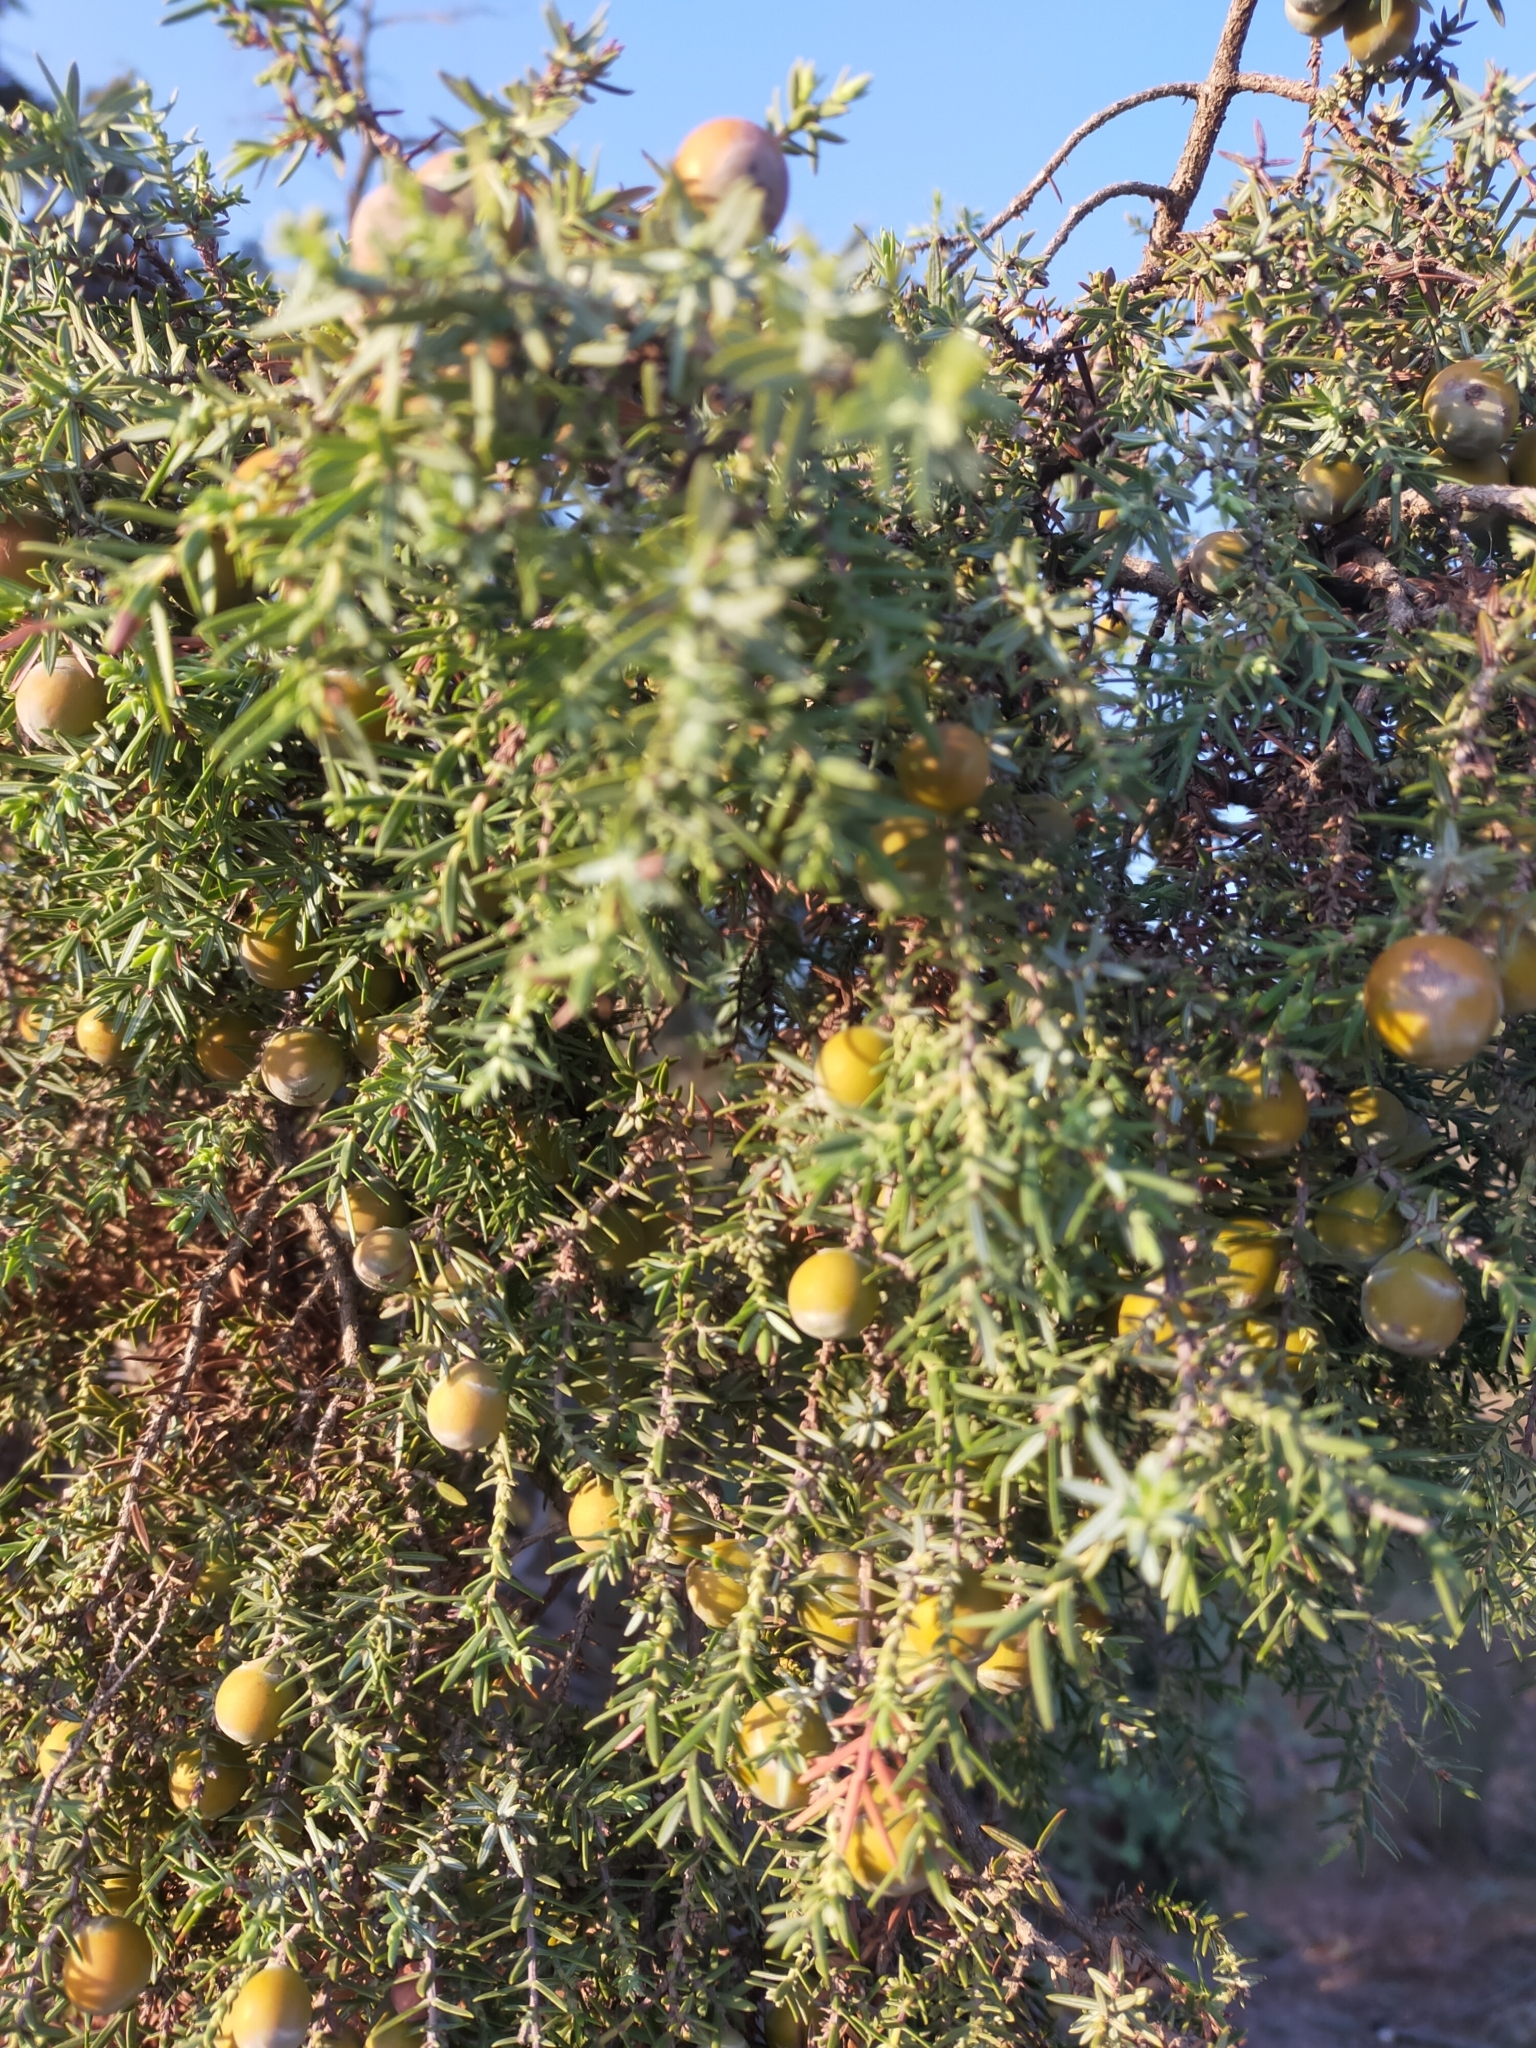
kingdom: Plantae
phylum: Tracheophyta
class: Pinopsida
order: Pinales
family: Cupressaceae
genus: Juniperus
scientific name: Juniperus oxycedrus
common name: Prickly juniper
